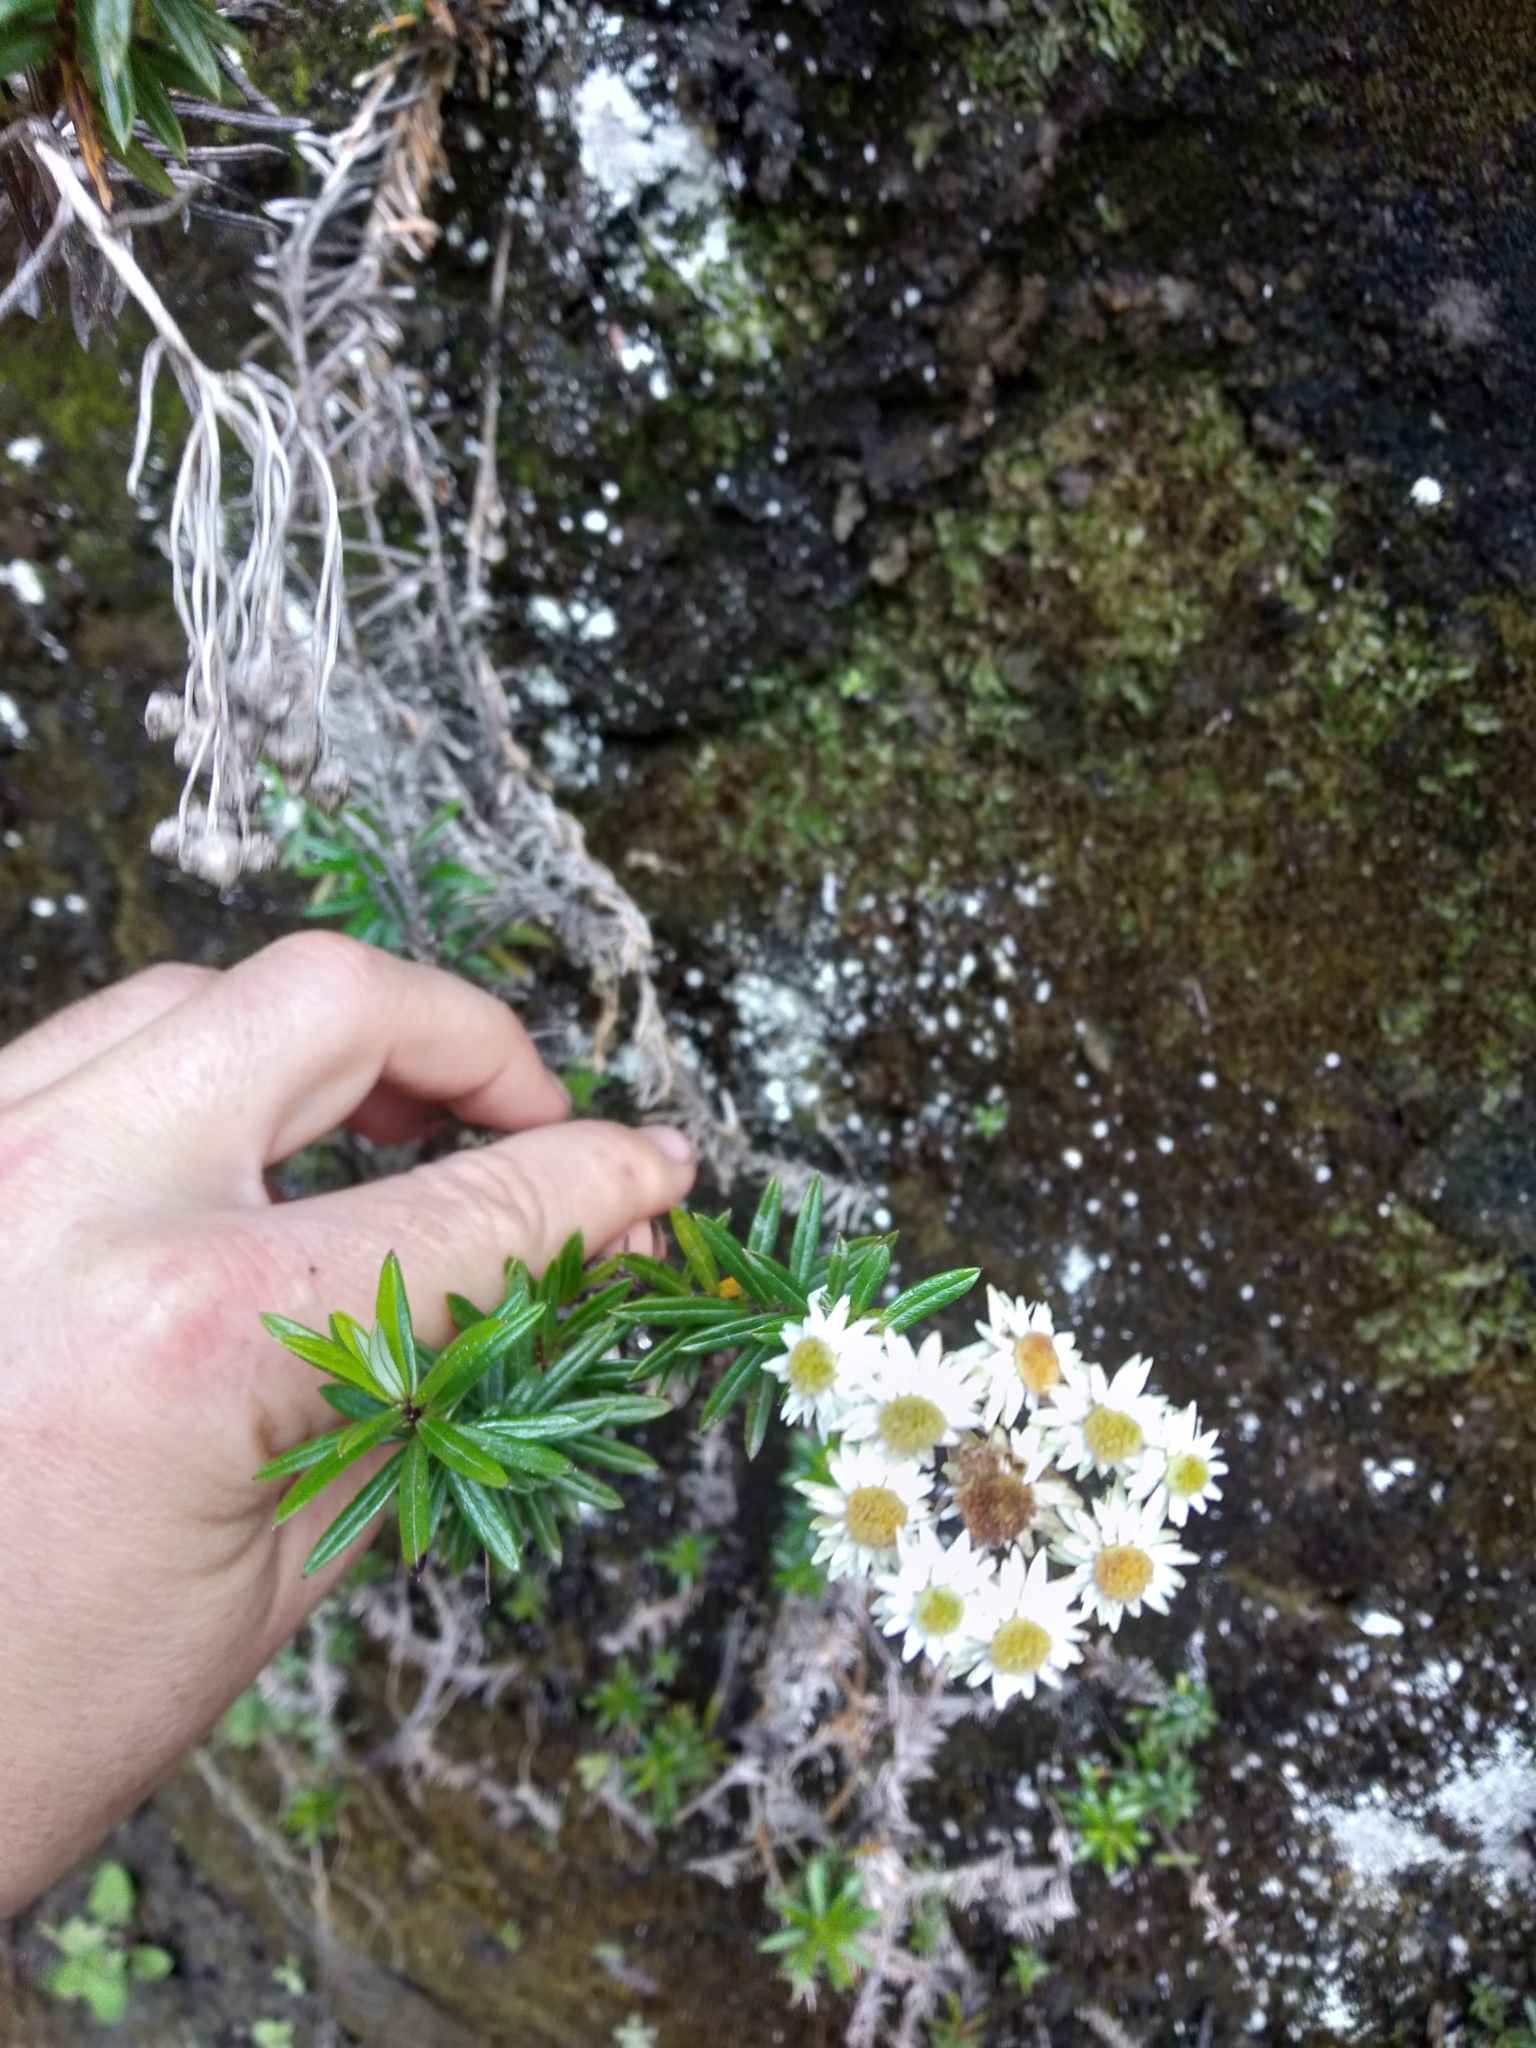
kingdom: Plantae
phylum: Tracheophyta
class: Magnoliopsida
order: Asterales
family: Asteraceae
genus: Anaphalioides
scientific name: Anaphalioides subrigida
